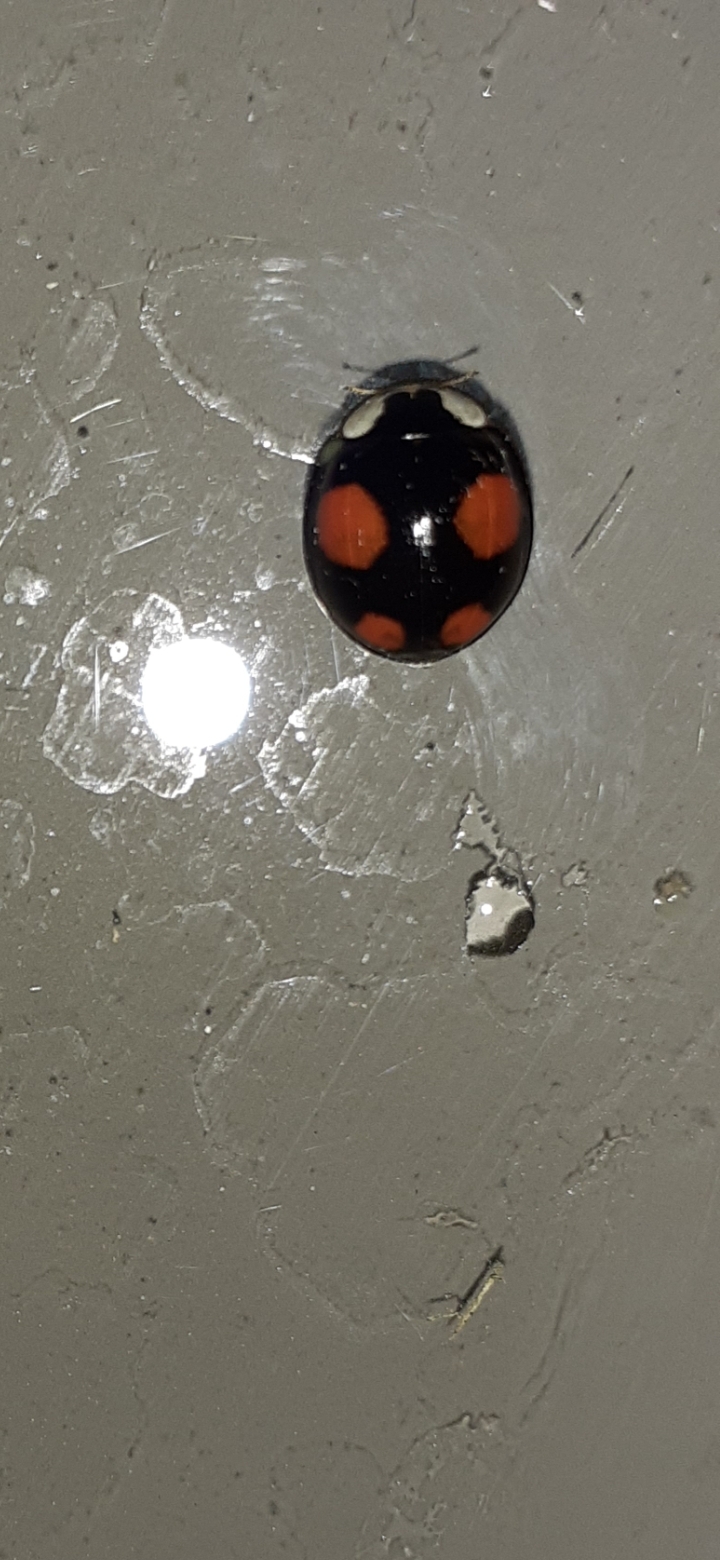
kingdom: Animalia
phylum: Arthropoda
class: Insecta
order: Coleoptera
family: Coccinellidae
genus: Harmonia
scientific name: Harmonia axyridis
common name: Harlequin ladybird
